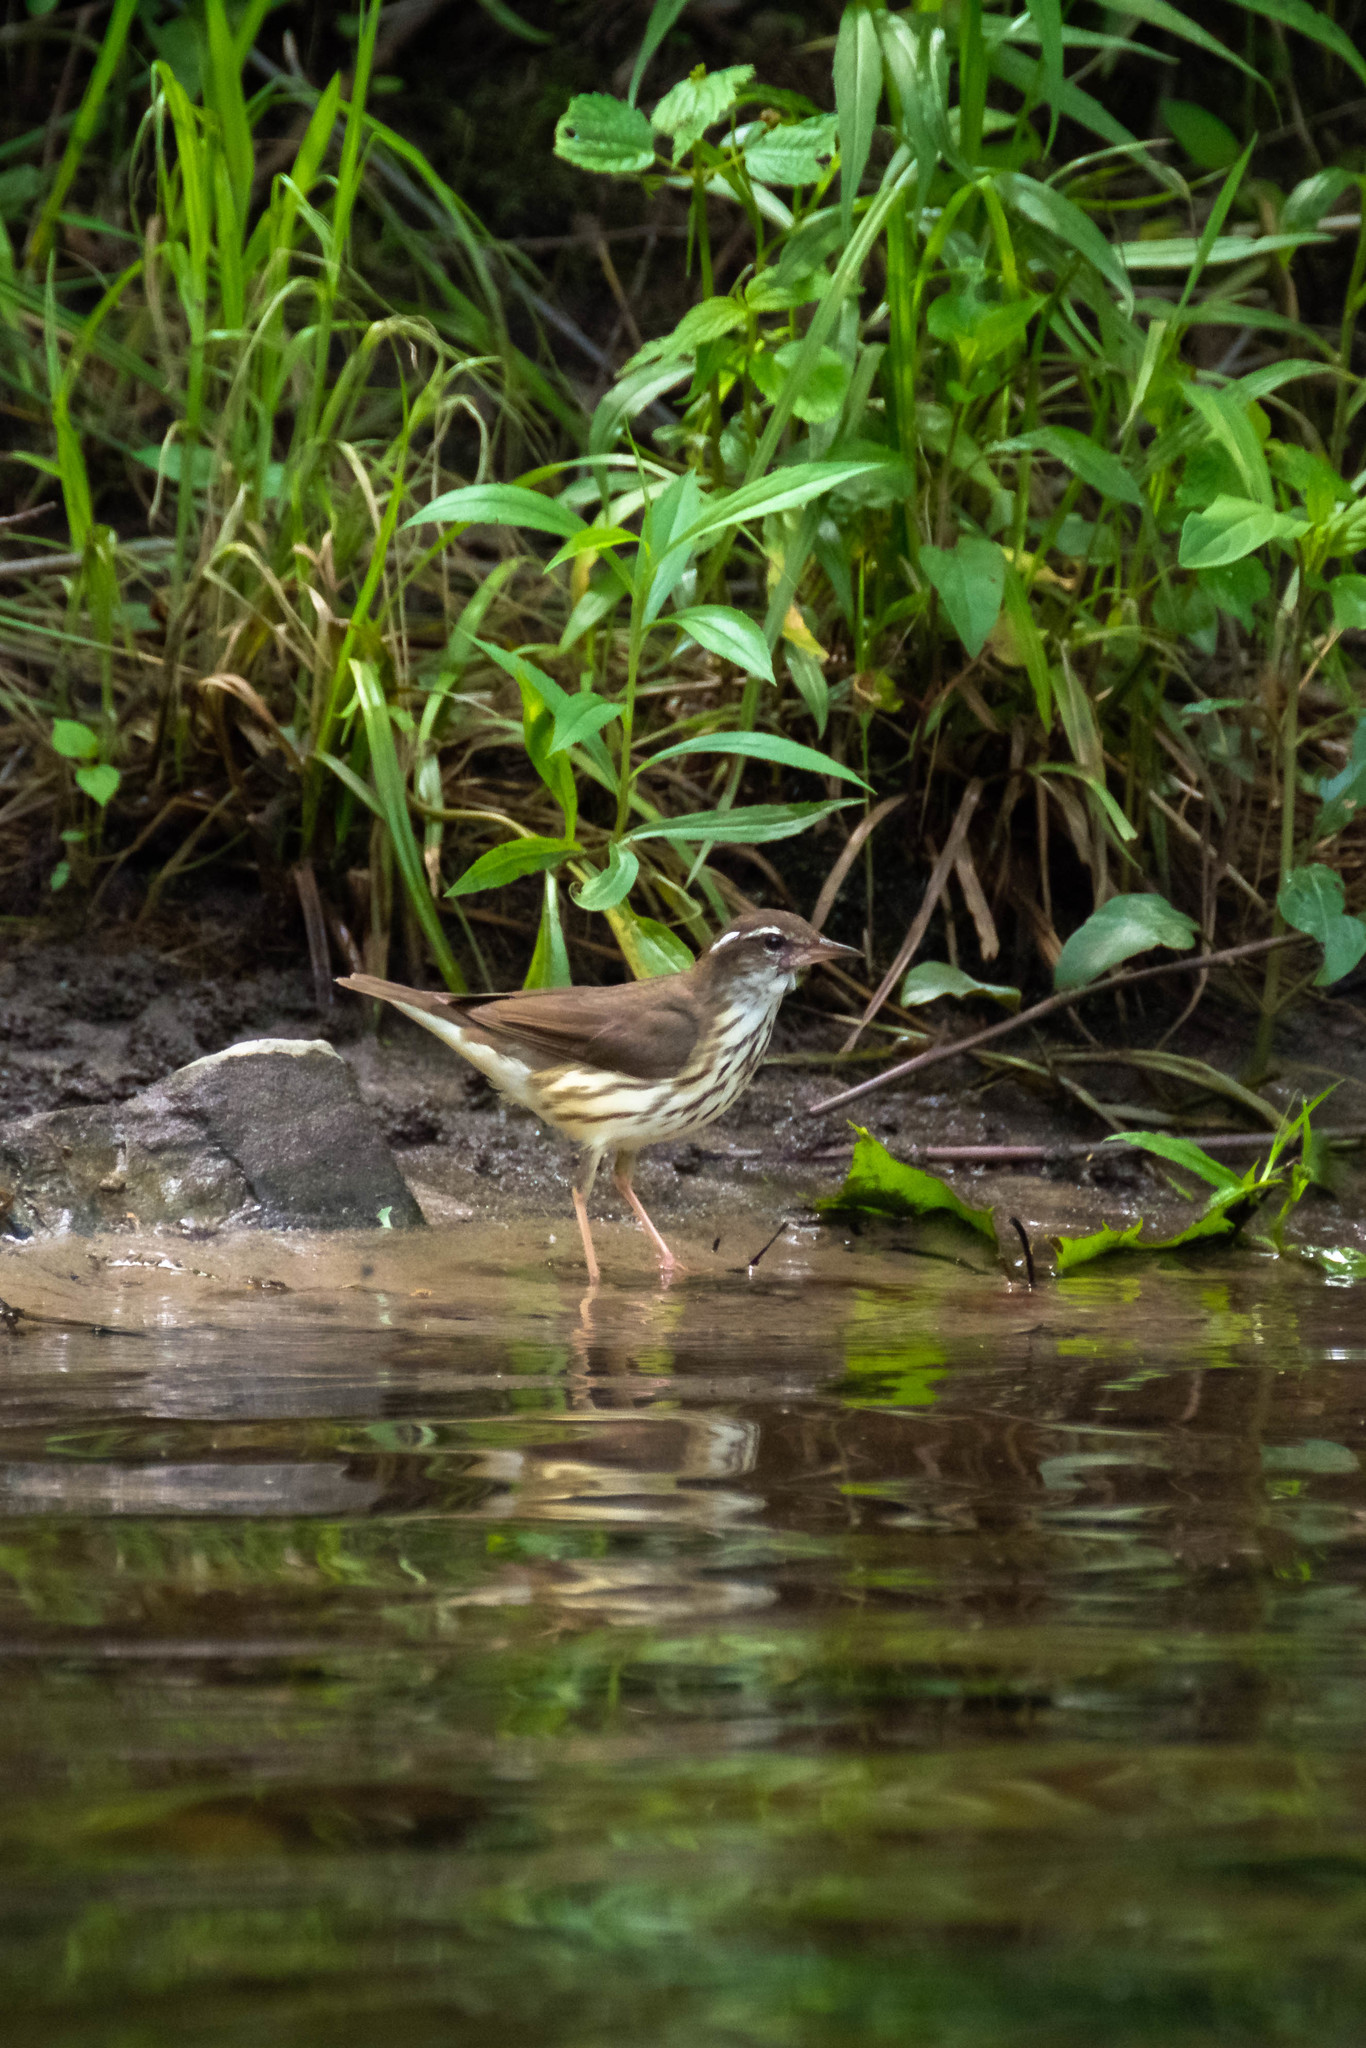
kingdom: Animalia
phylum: Chordata
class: Aves
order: Passeriformes
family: Parulidae
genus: Parkesia
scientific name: Parkesia motacilla
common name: Louisiana waterthrush
